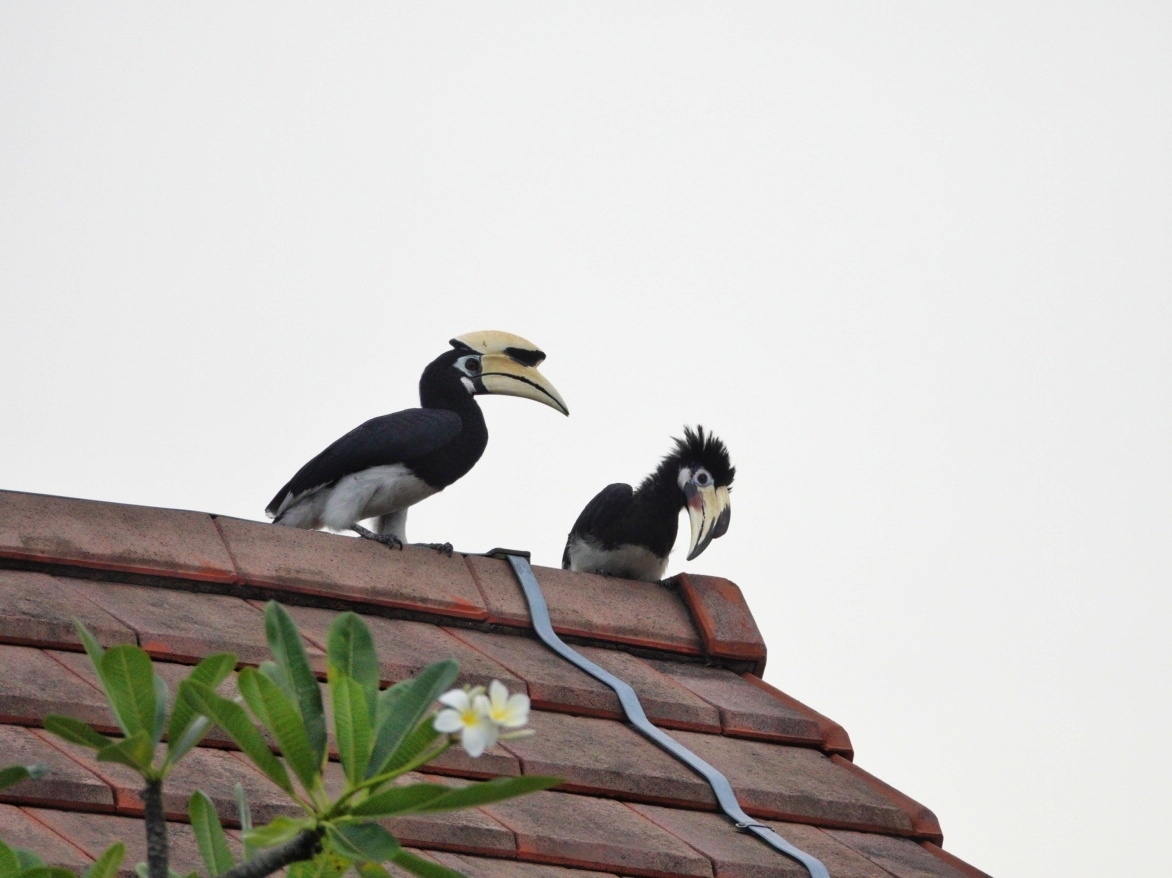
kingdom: Animalia
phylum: Chordata
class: Aves
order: Bucerotiformes
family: Bucerotidae
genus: Anthracoceros
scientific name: Anthracoceros albirostris
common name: Oriental pied-hornbill
